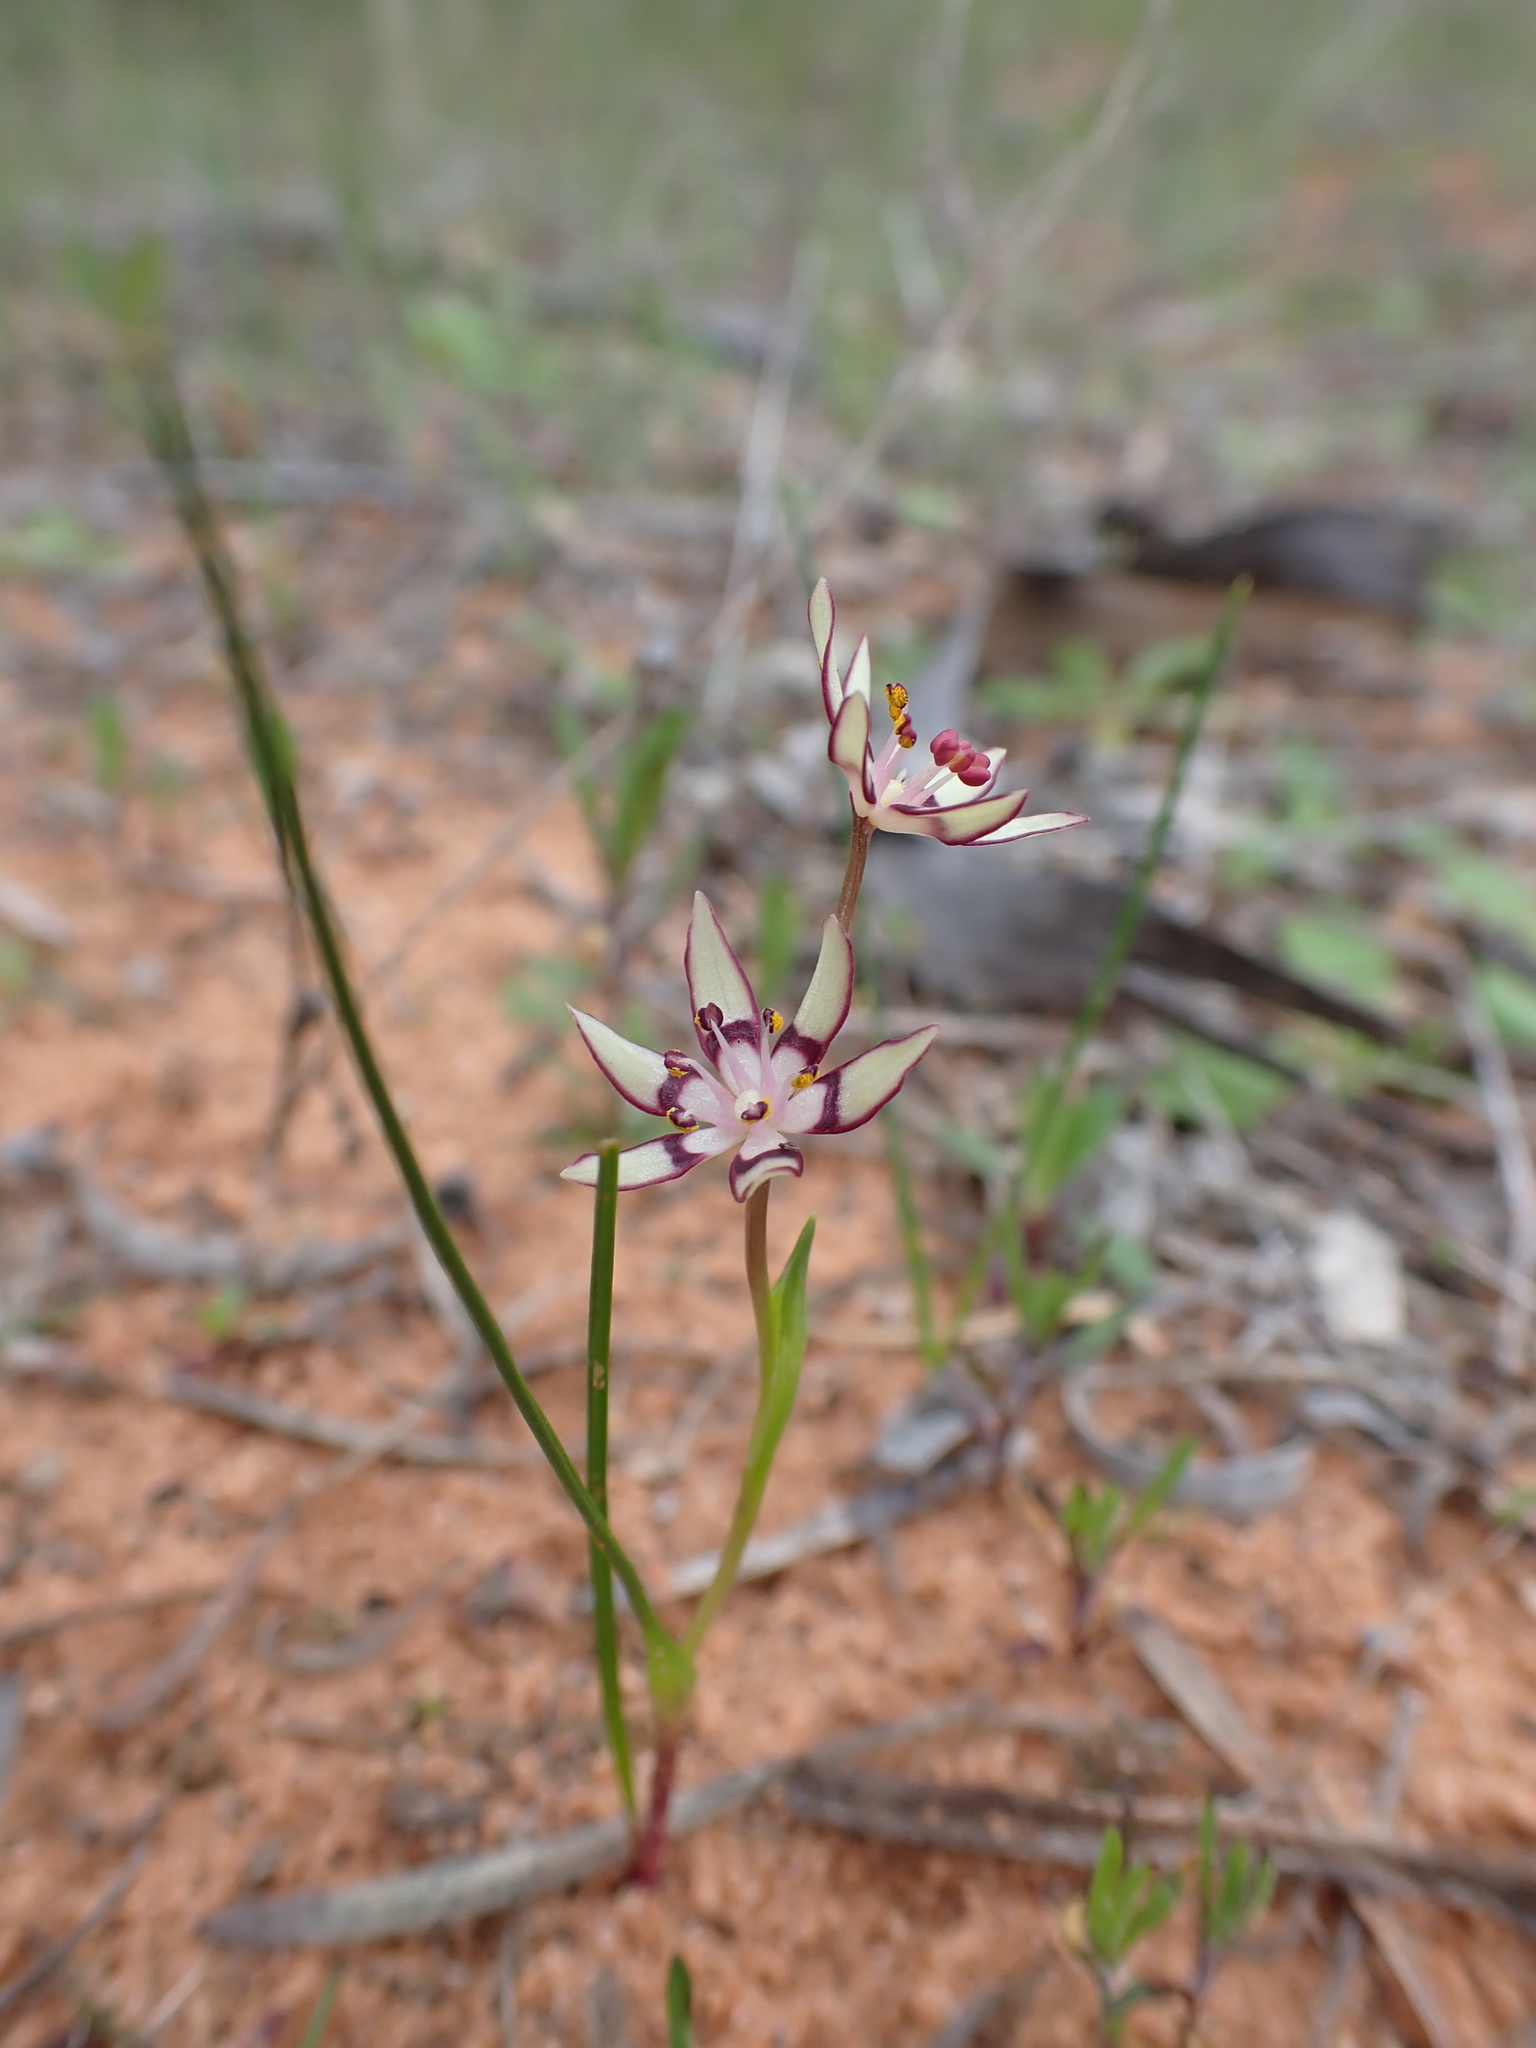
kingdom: Plantae
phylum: Tracheophyta
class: Liliopsida
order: Liliales
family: Colchicaceae
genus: Wurmbea
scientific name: Wurmbea dioica
